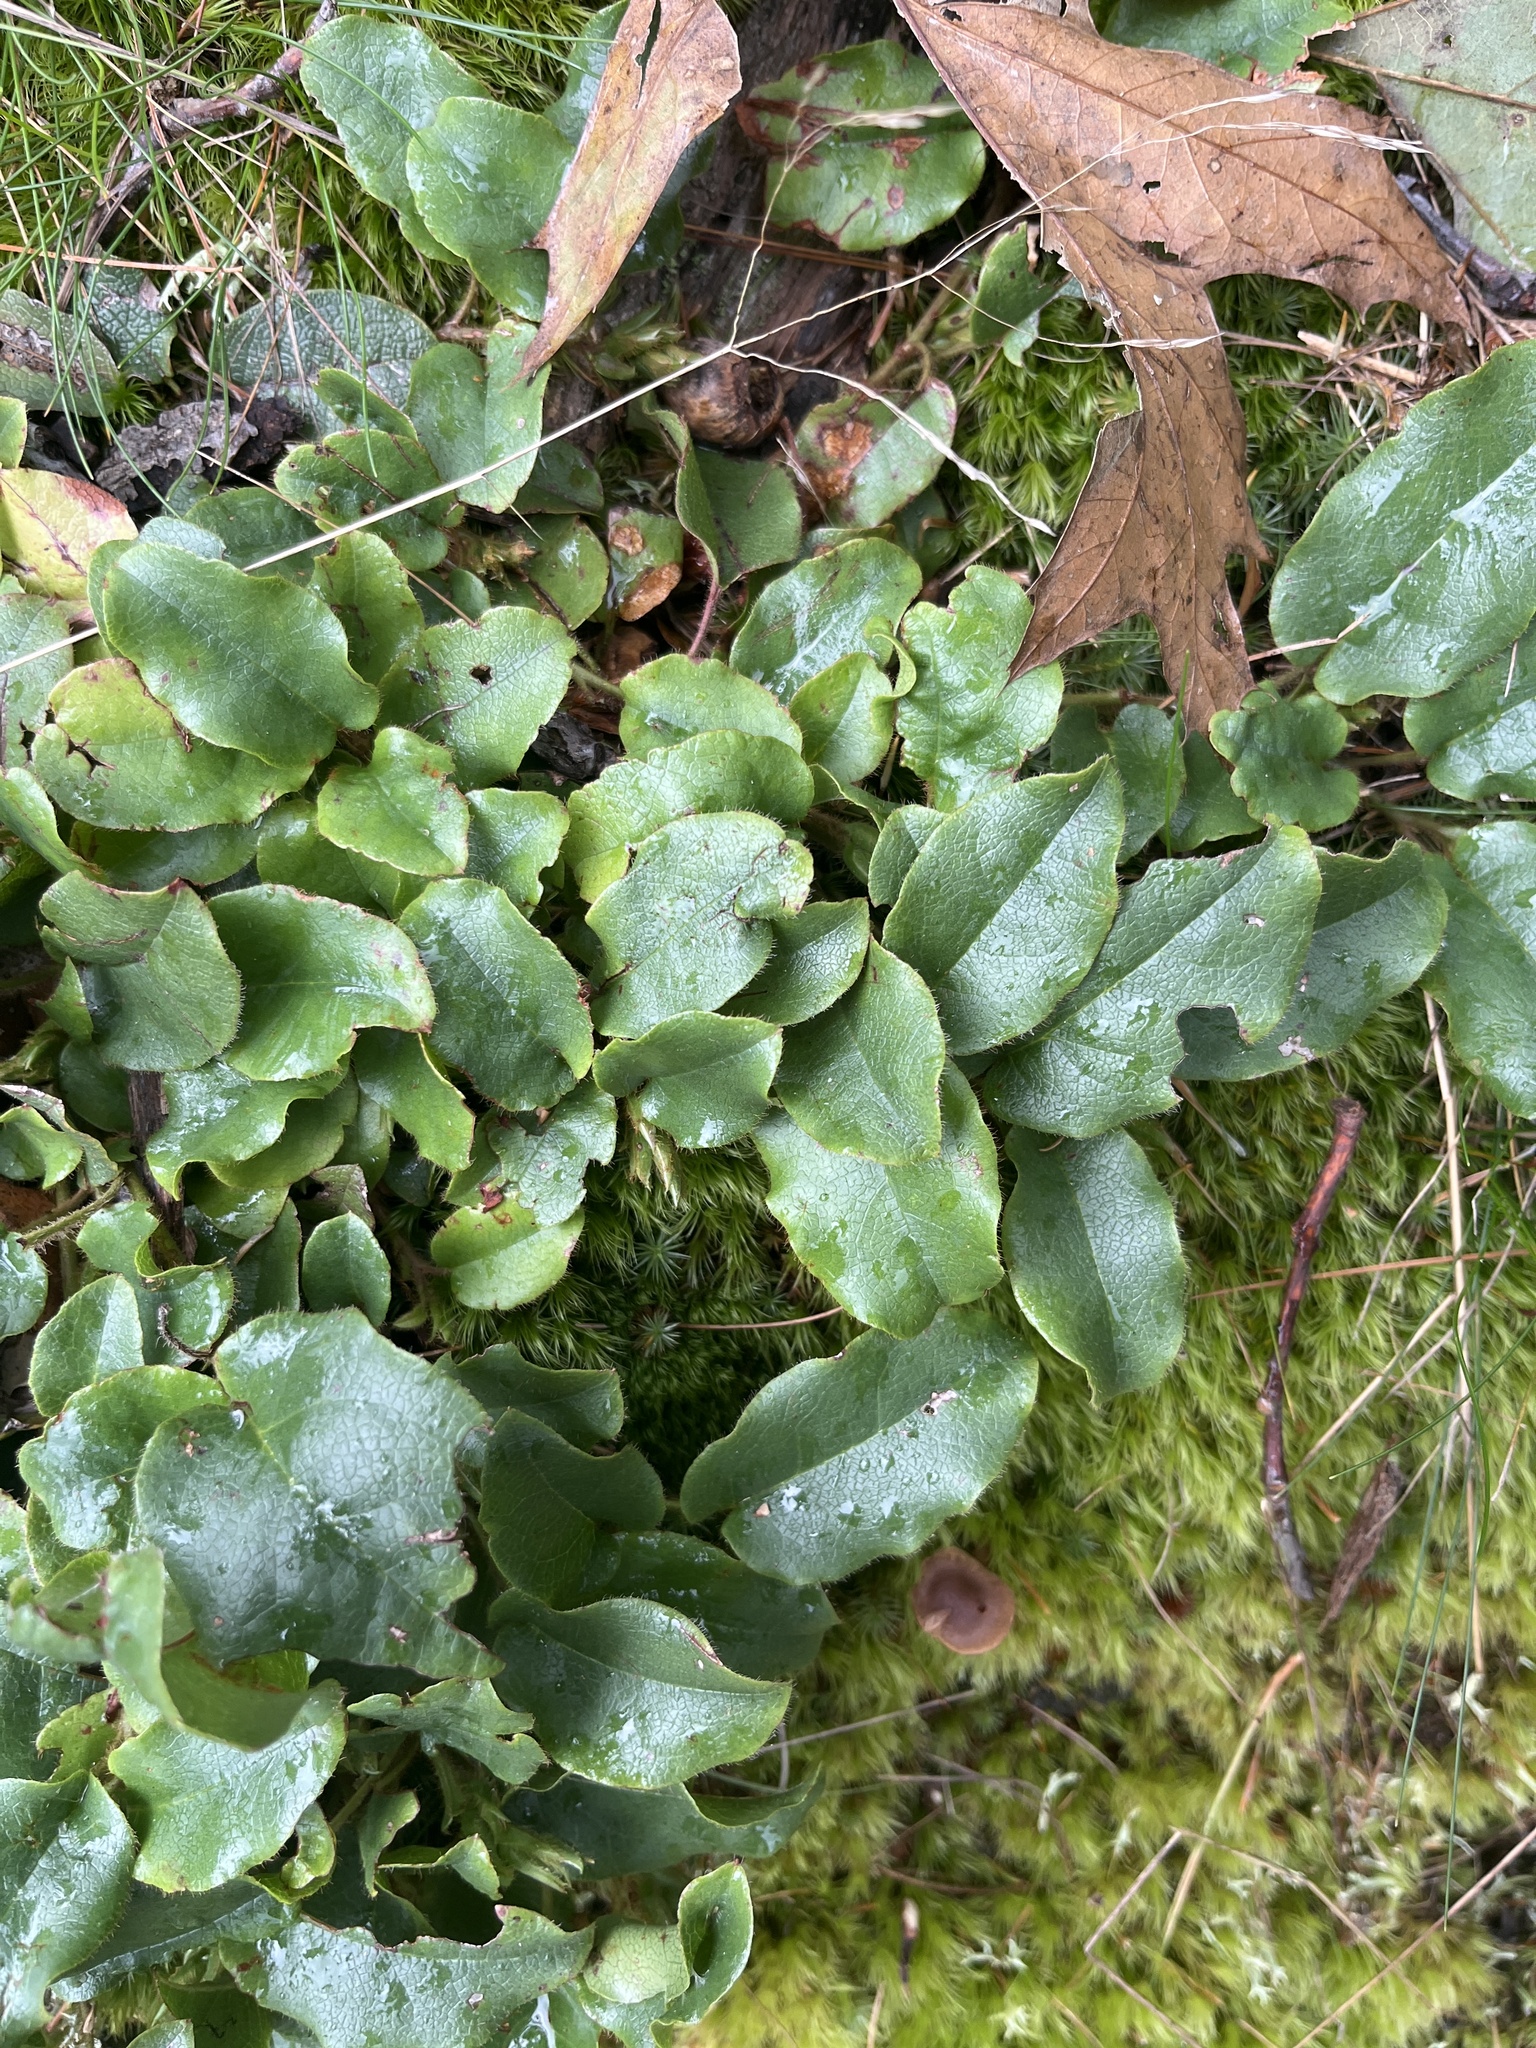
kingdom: Plantae
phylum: Tracheophyta
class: Magnoliopsida
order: Ericales
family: Ericaceae
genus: Epigaea
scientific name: Epigaea repens
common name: Gravelroot
